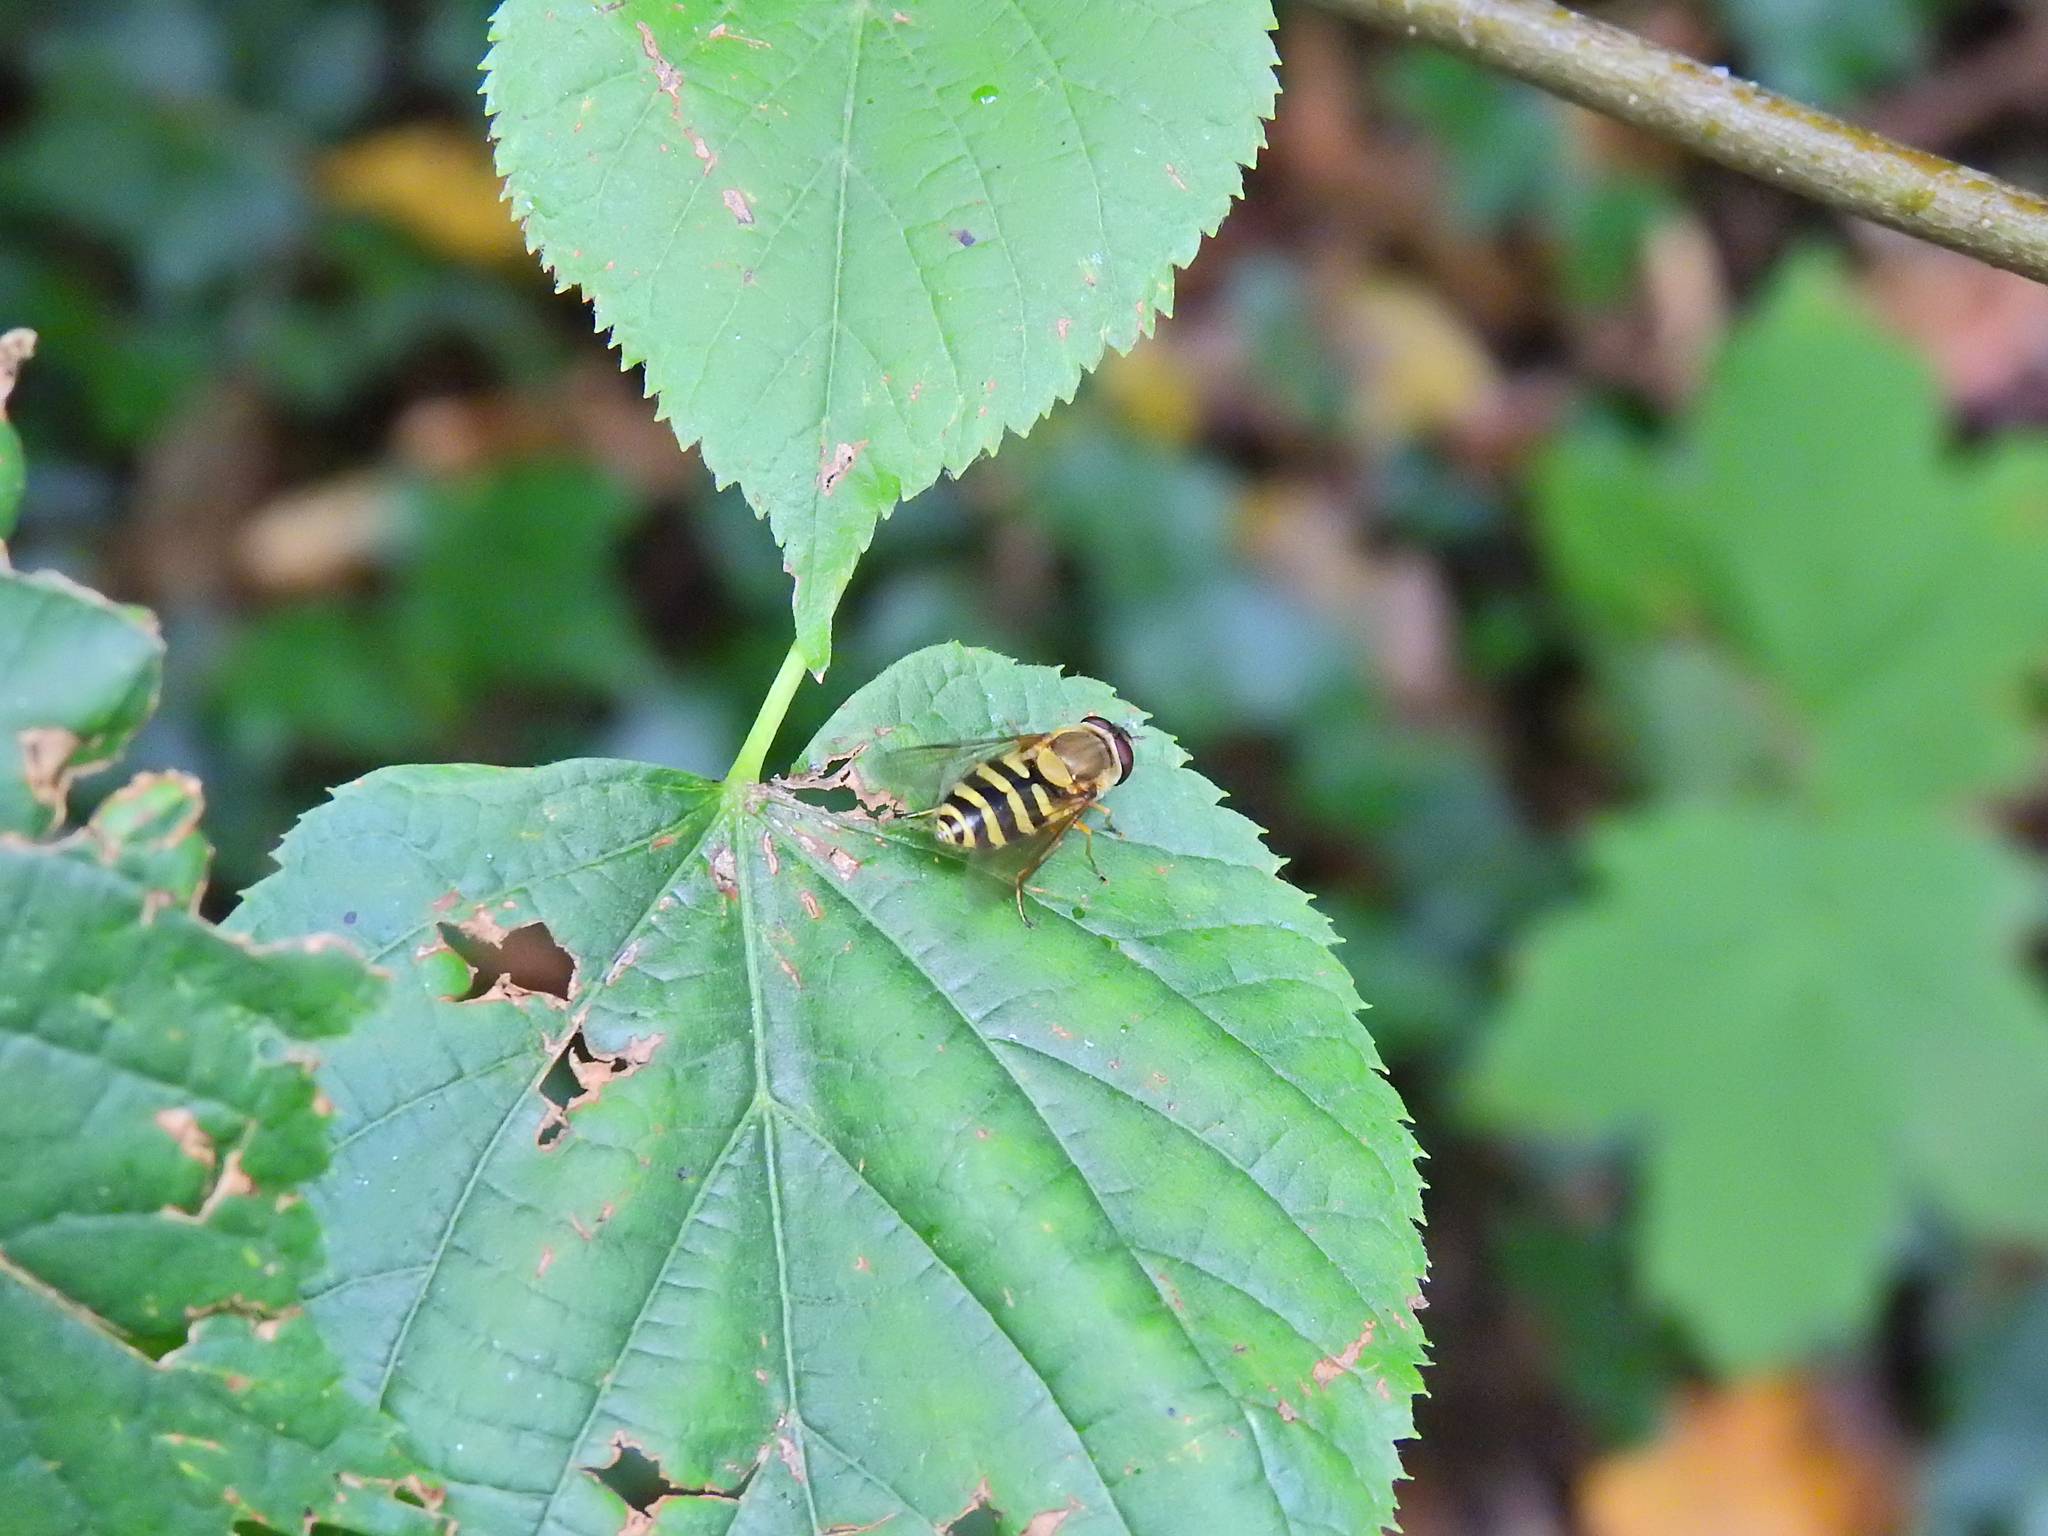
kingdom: Animalia
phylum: Arthropoda
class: Insecta
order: Diptera
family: Syrphidae
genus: Syrphus
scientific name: Syrphus
